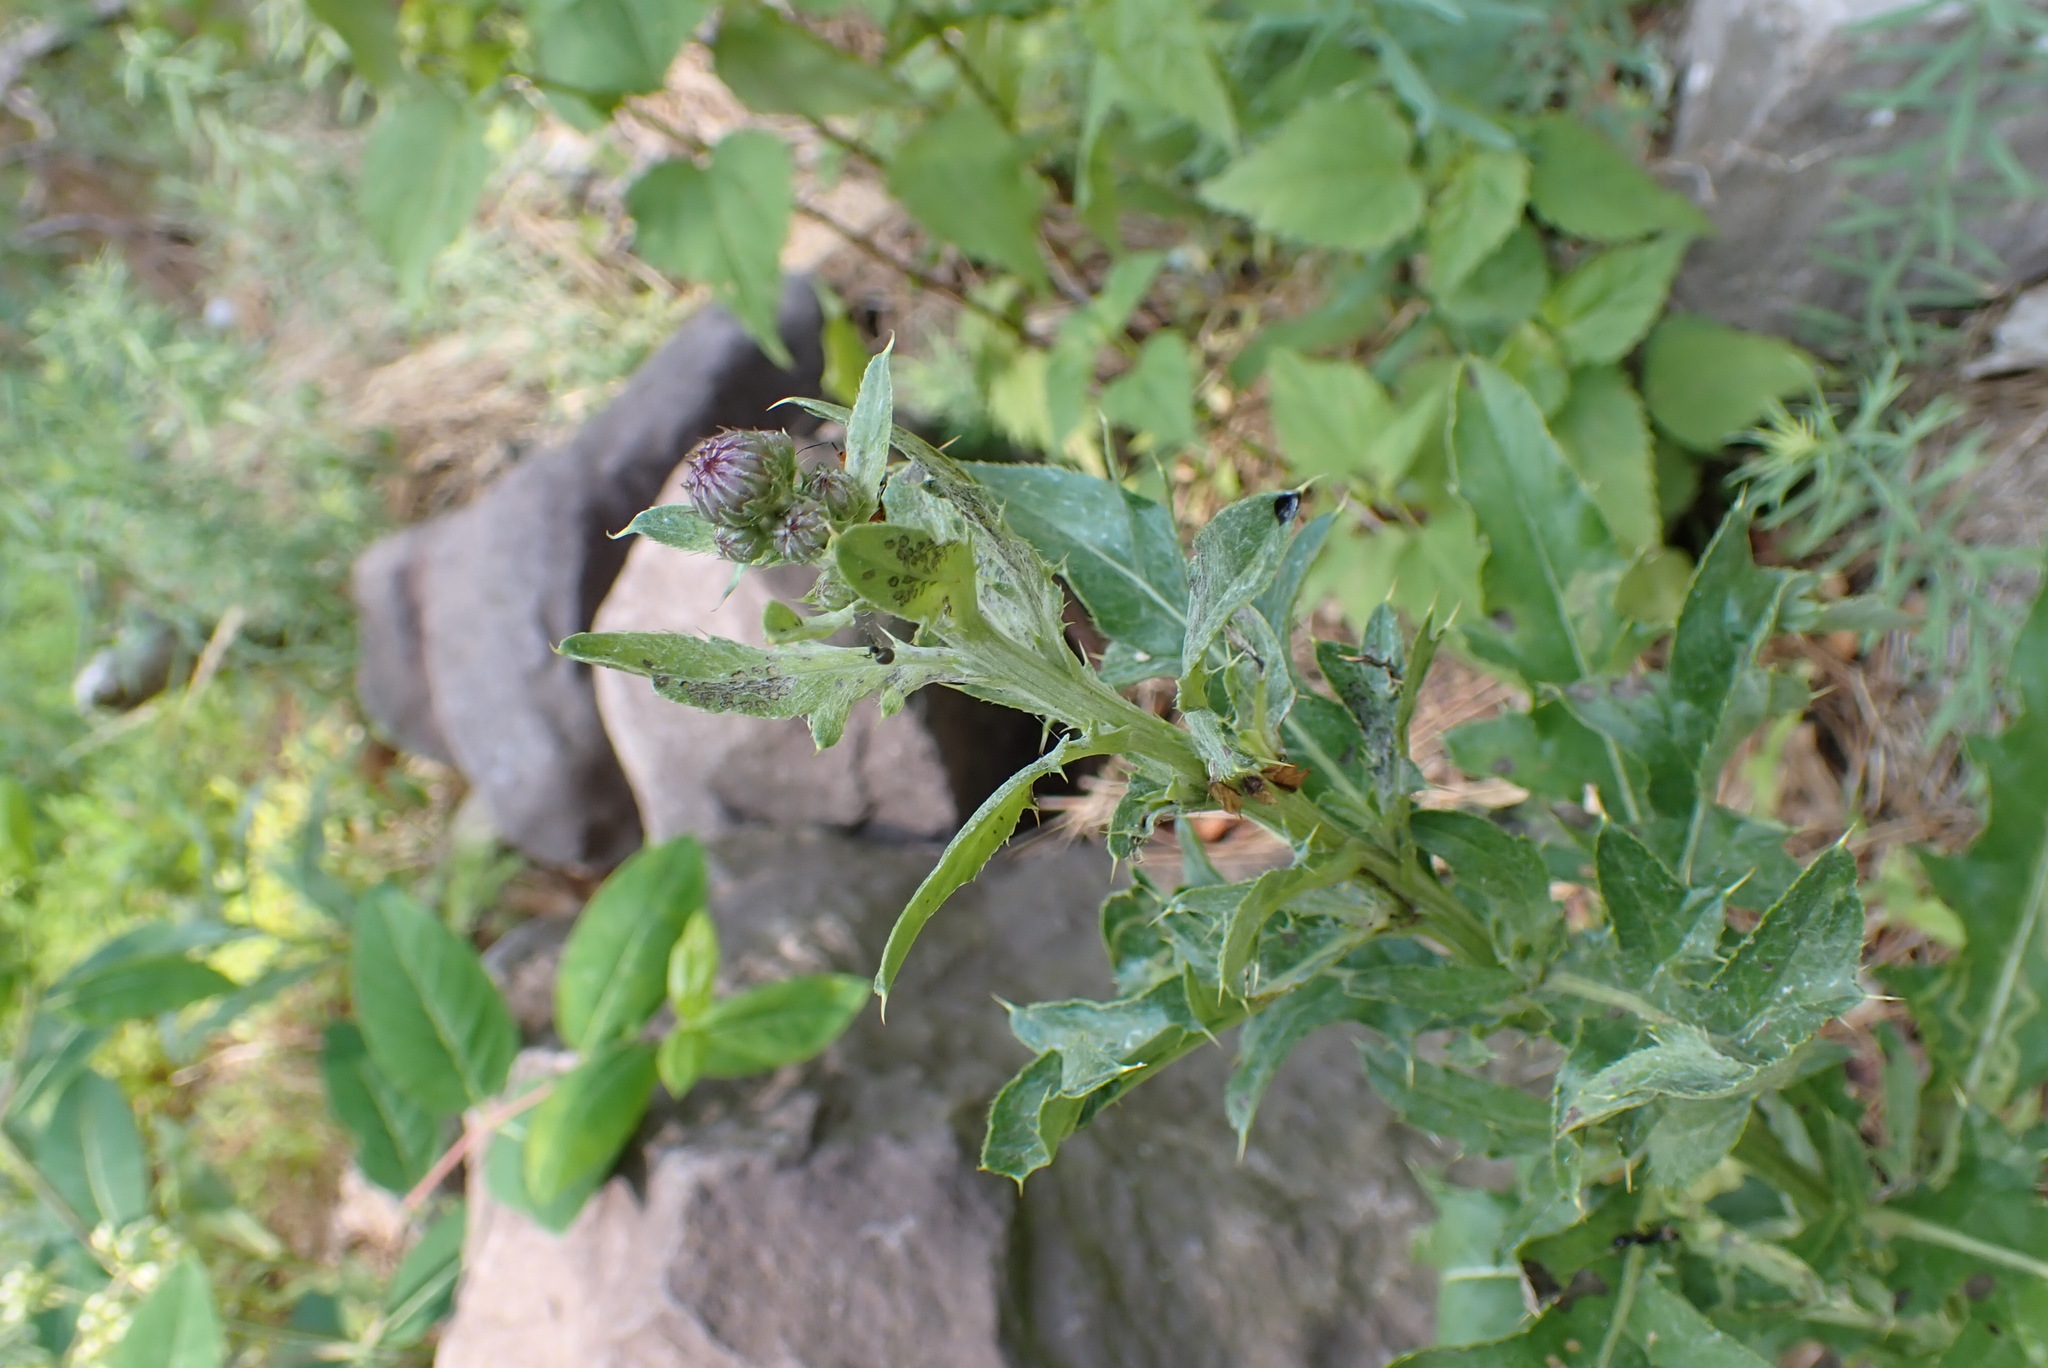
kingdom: Plantae
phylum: Tracheophyta
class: Magnoliopsida
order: Asterales
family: Asteraceae
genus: Cirsium
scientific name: Cirsium arvense
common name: Creeping thistle
